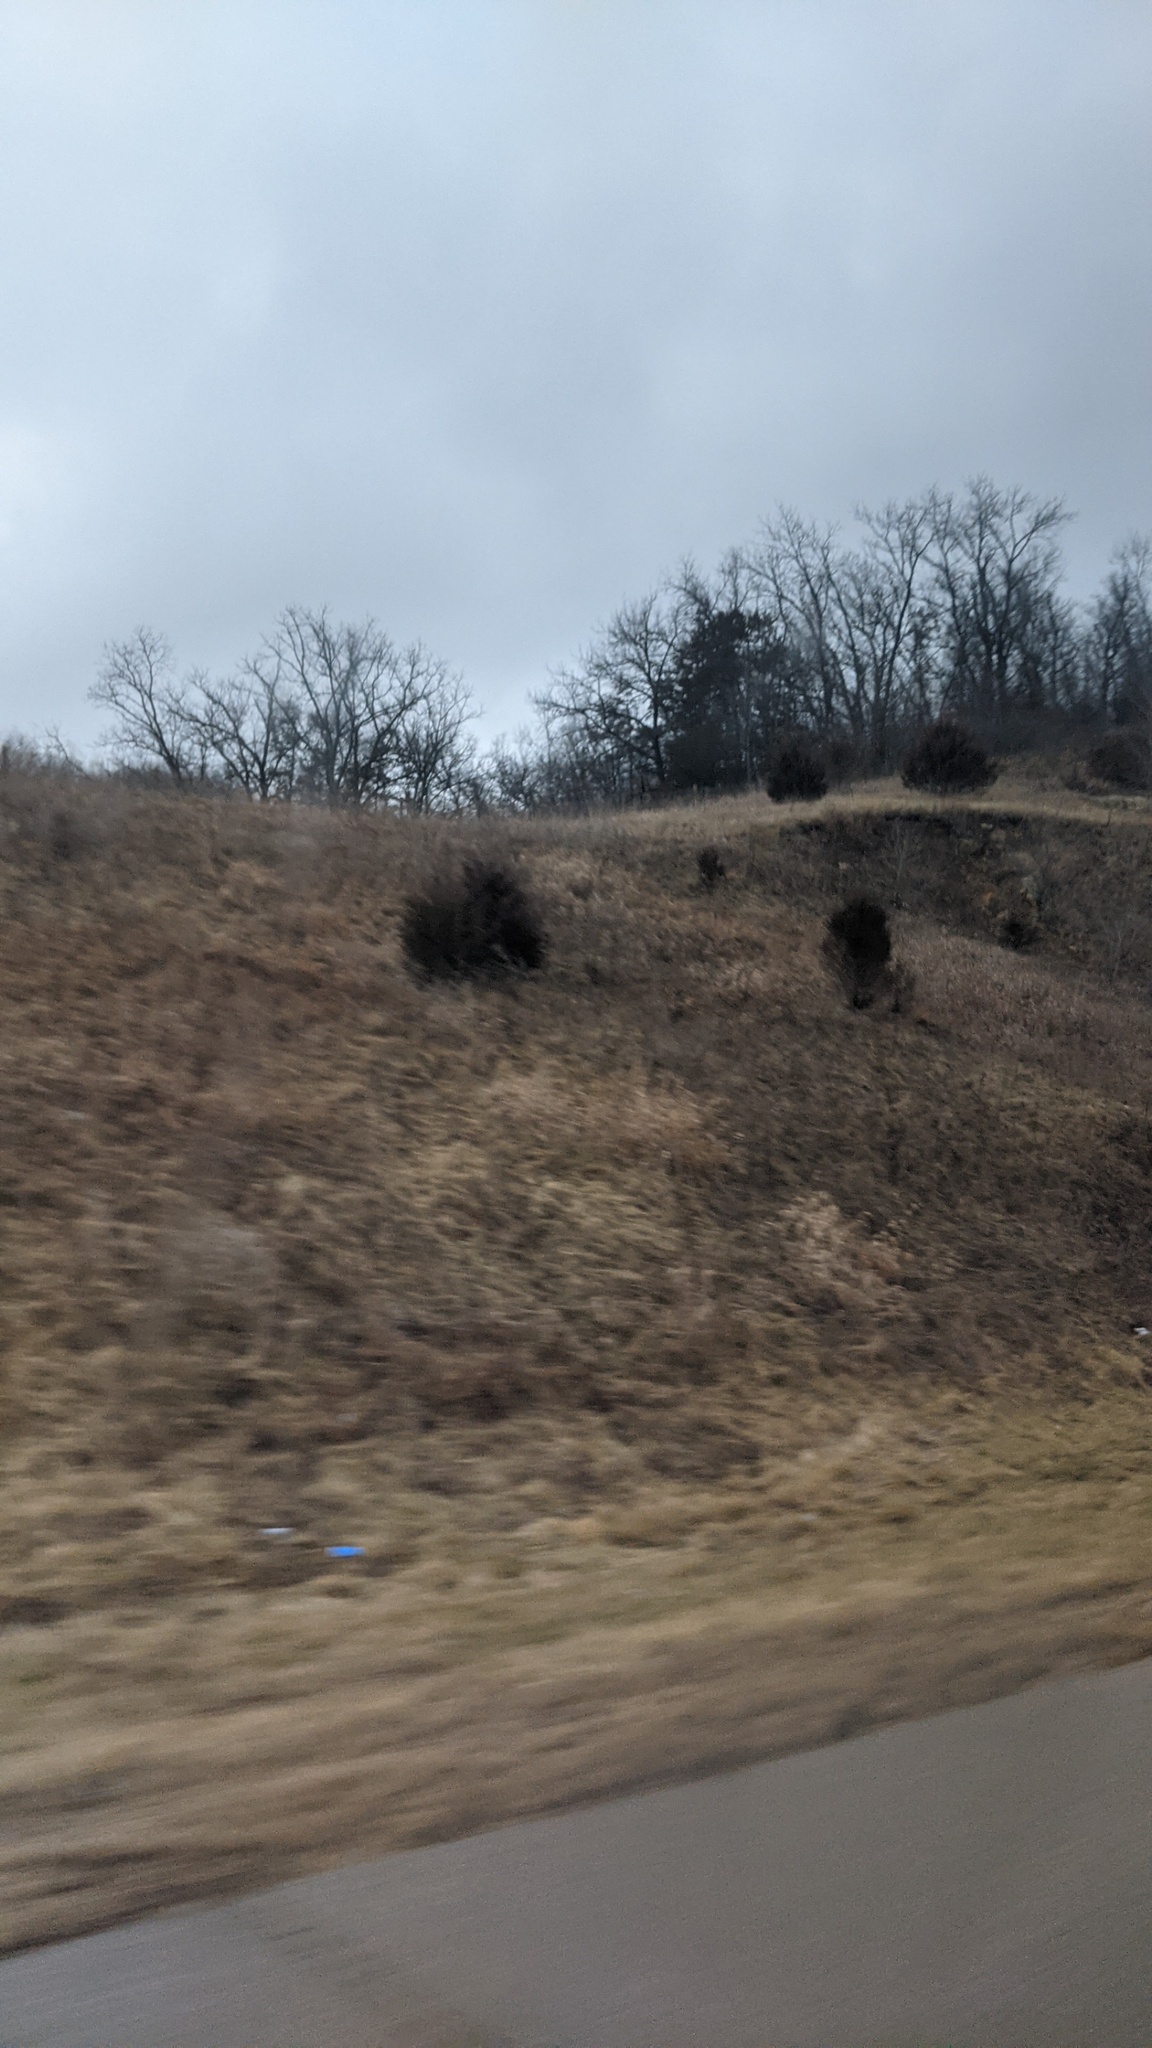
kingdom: Plantae
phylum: Tracheophyta
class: Pinopsida
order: Pinales
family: Cupressaceae
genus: Juniperus
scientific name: Juniperus virginiana
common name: Red juniper
